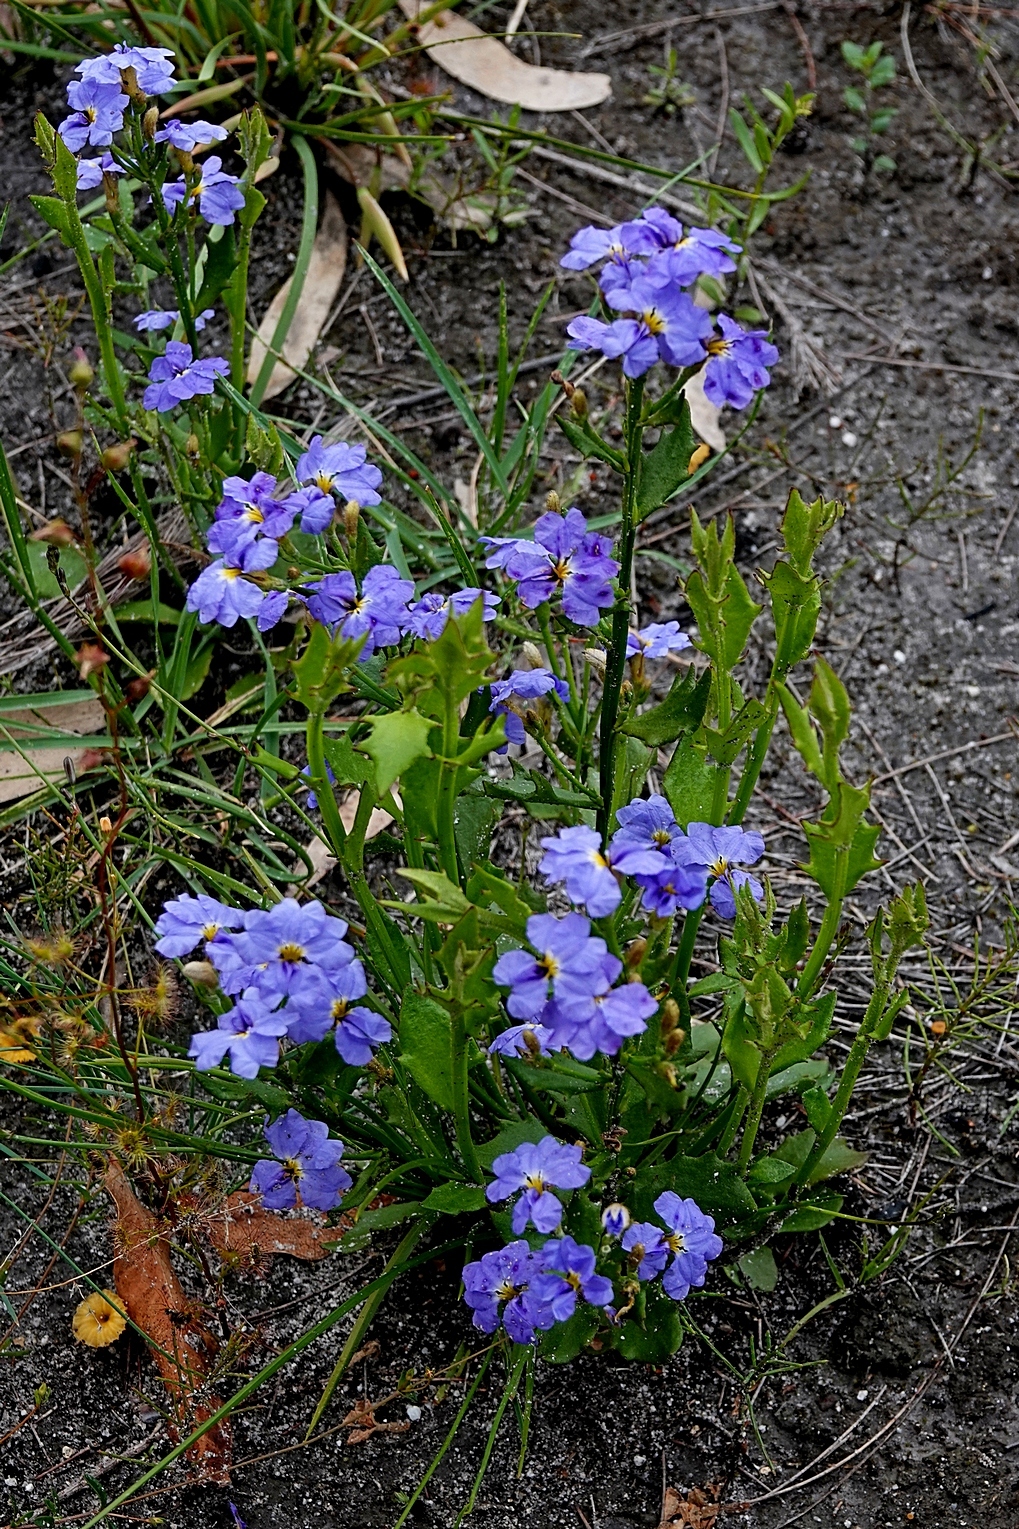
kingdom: Plantae
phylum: Tracheophyta
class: Magnoliopsida
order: Asterales
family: Goodeniaceae
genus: Dampiera
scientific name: Dampiera stricta
